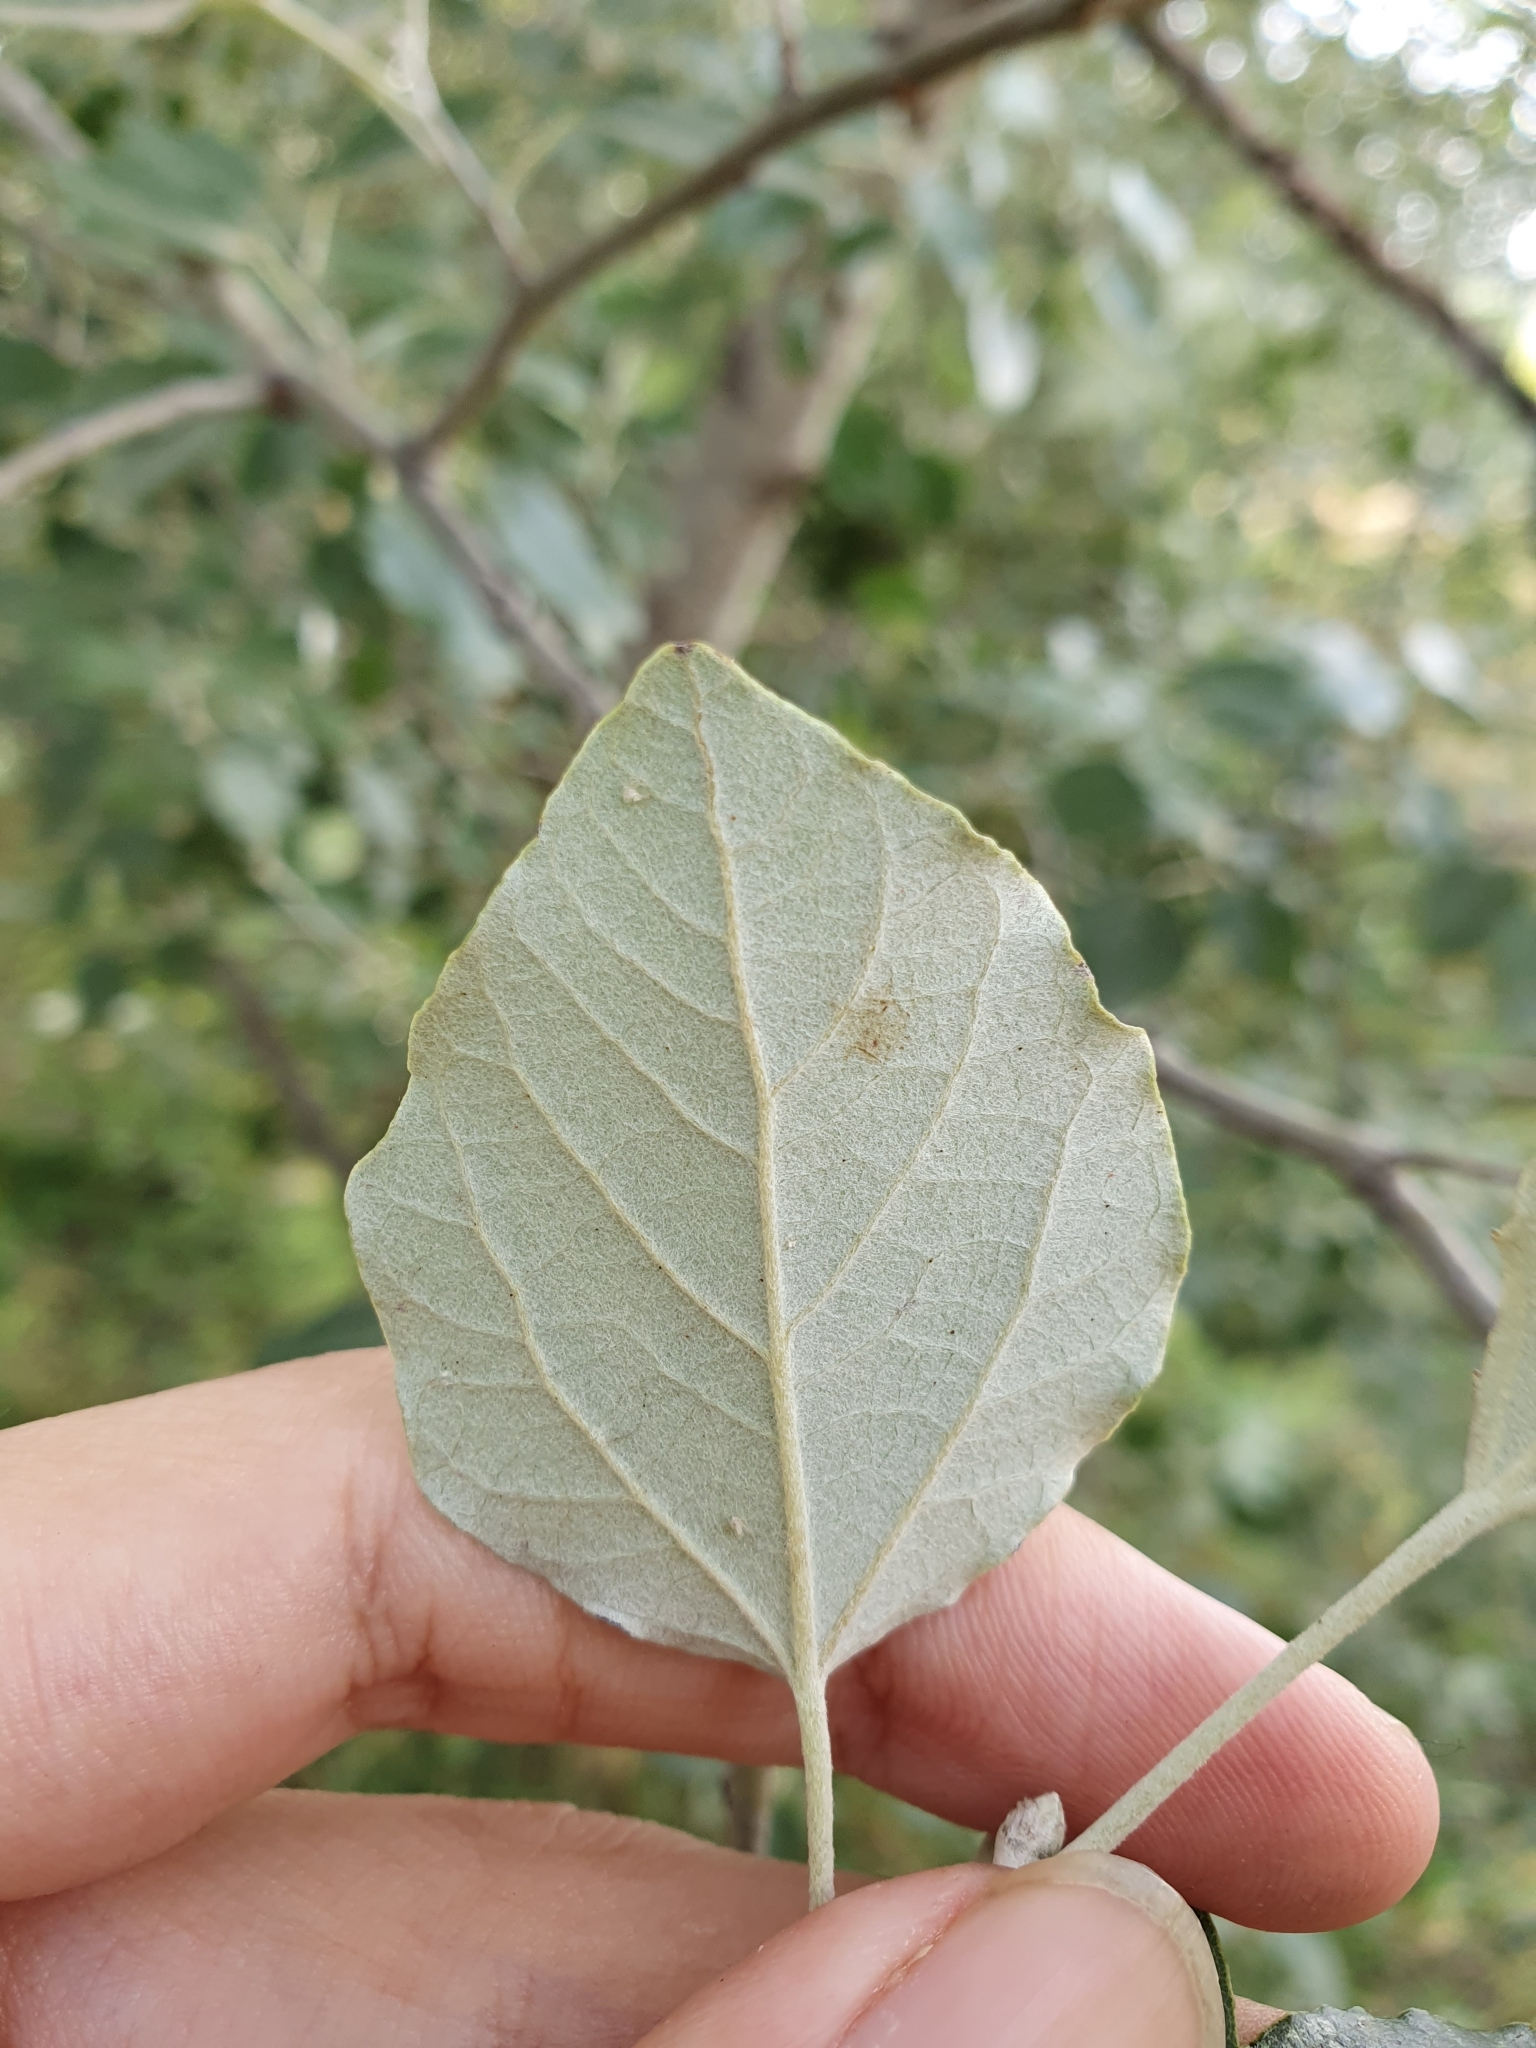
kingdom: Plantae
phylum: Tracheophyta
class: Magnoliopsida
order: Malpighiales
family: Salicaceae
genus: Populus
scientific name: Populus alba
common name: White poplar
